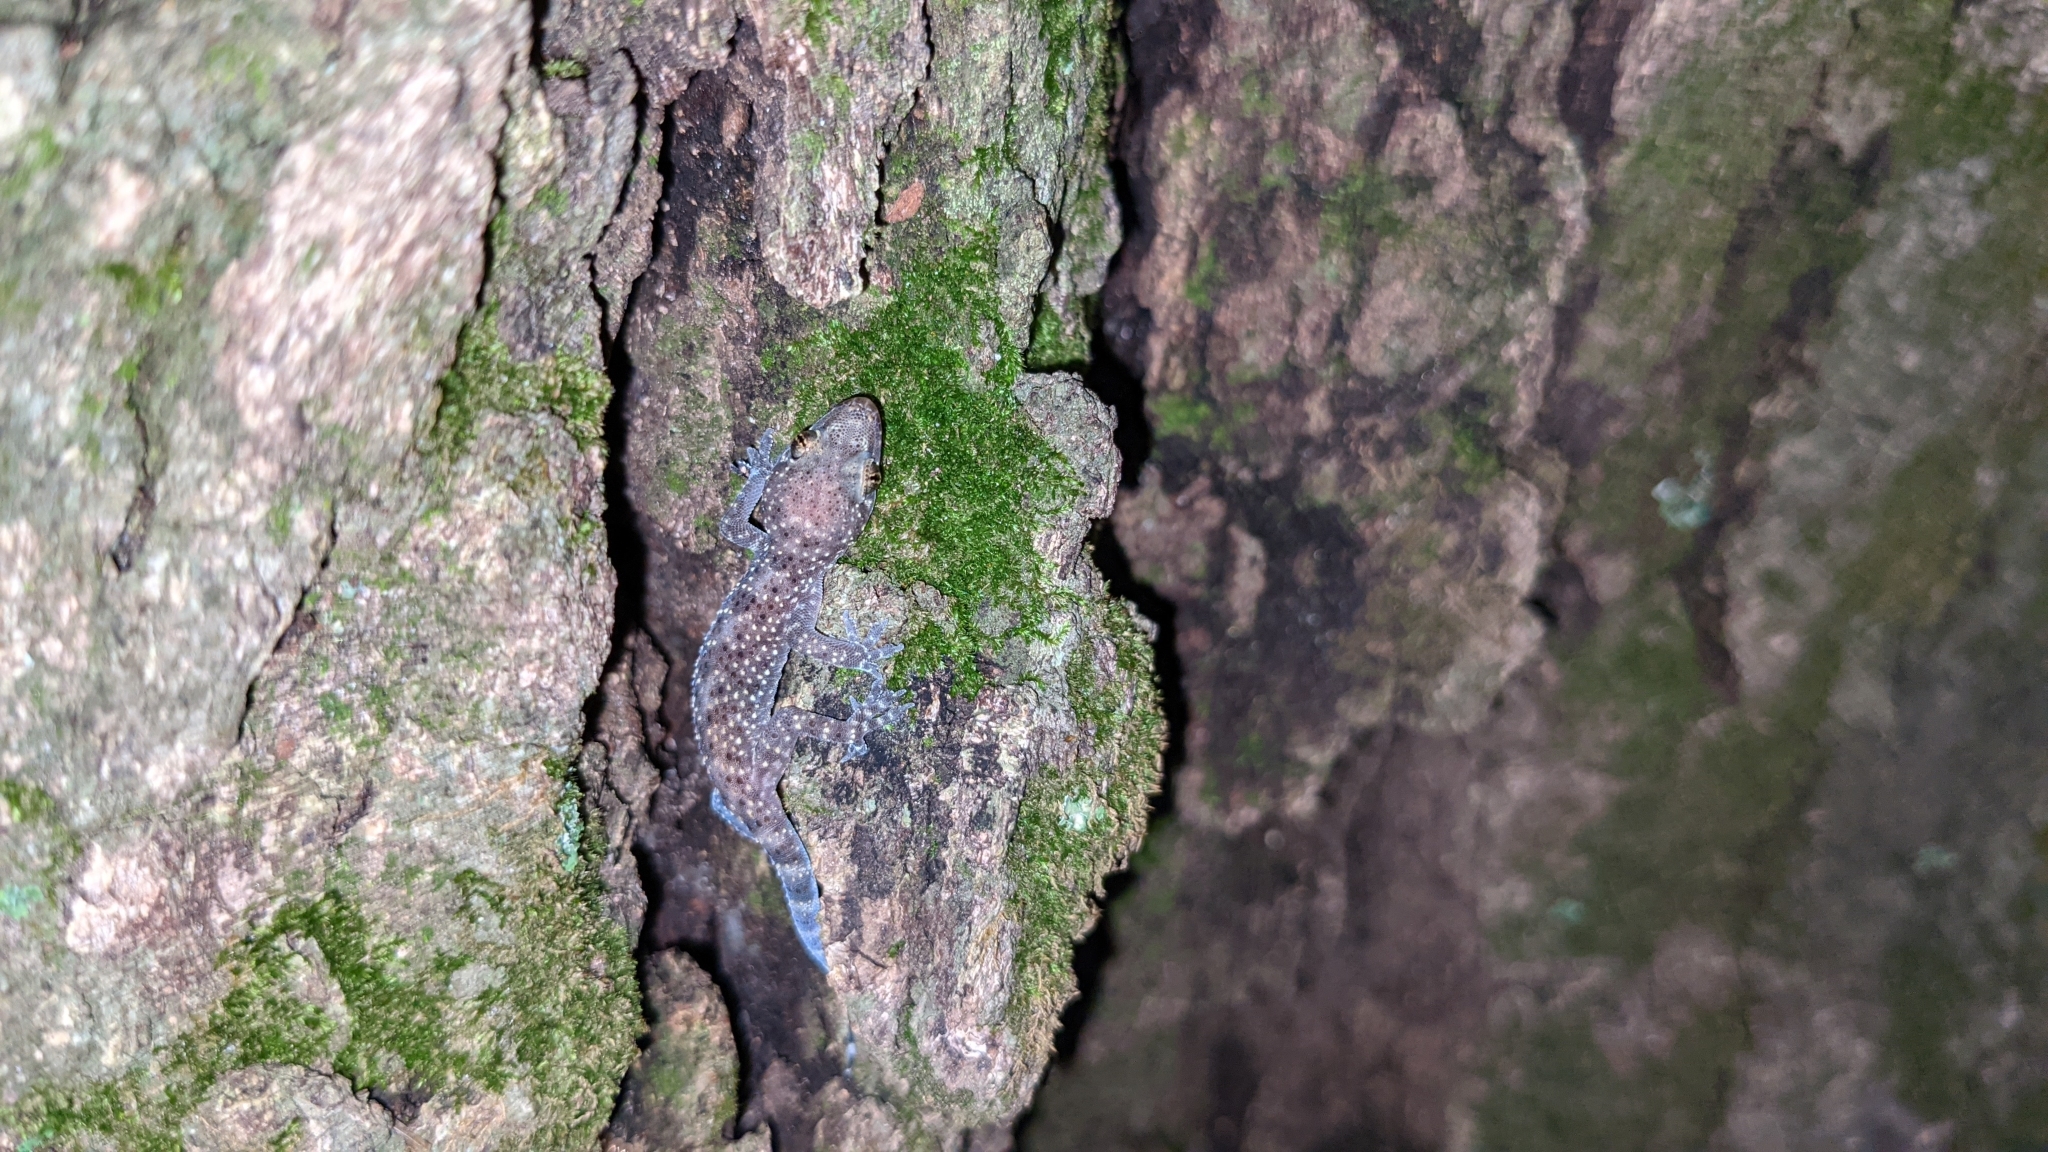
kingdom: Animalia
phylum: Chordata
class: Squamata
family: Gekkonidae
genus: Hemidactylus
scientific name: Hemidactylus turcicus
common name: Turkish gecko
